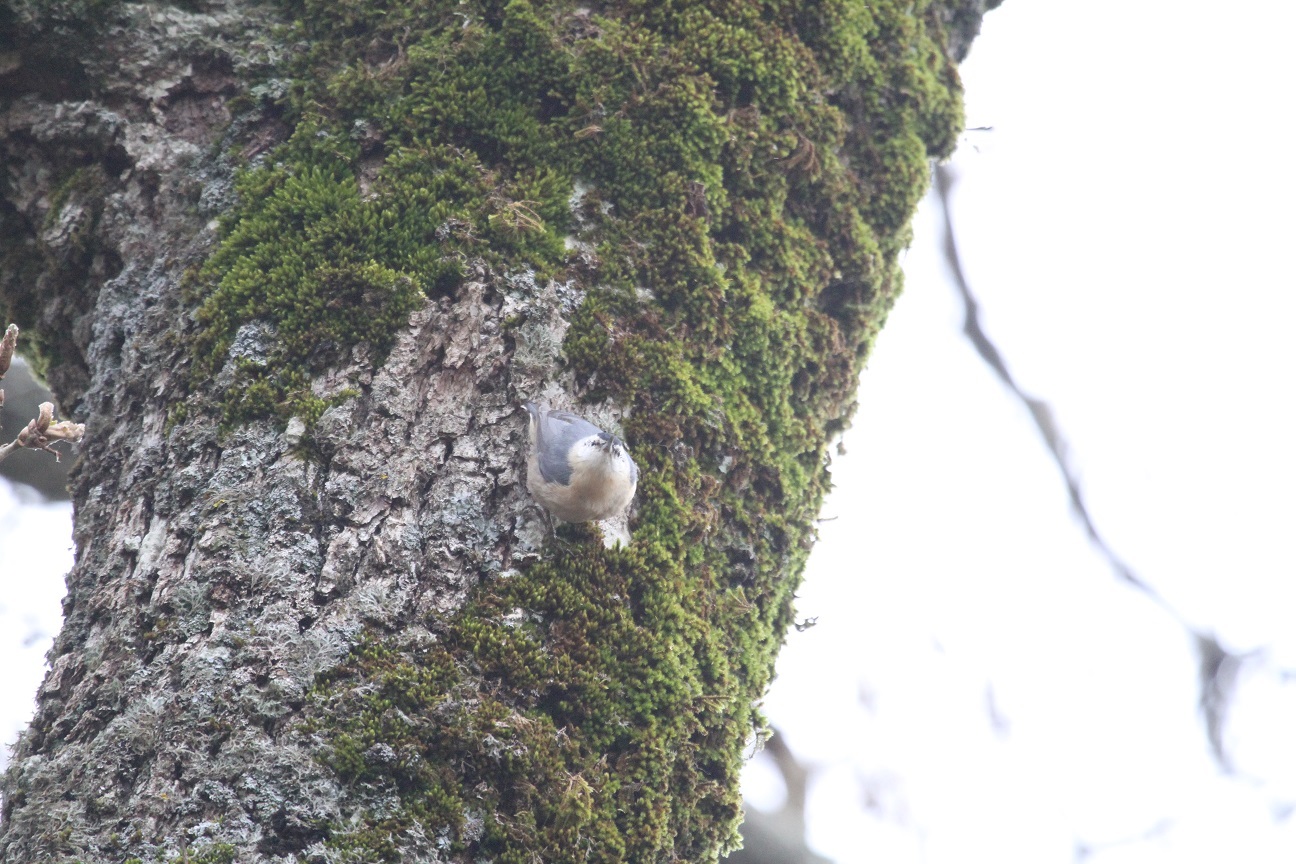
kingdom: Animalia
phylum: Chordata
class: Aves
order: Passeriformes
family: Sittidae
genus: Sitta
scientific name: Sitta ledanti
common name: Algerian nuthatch
